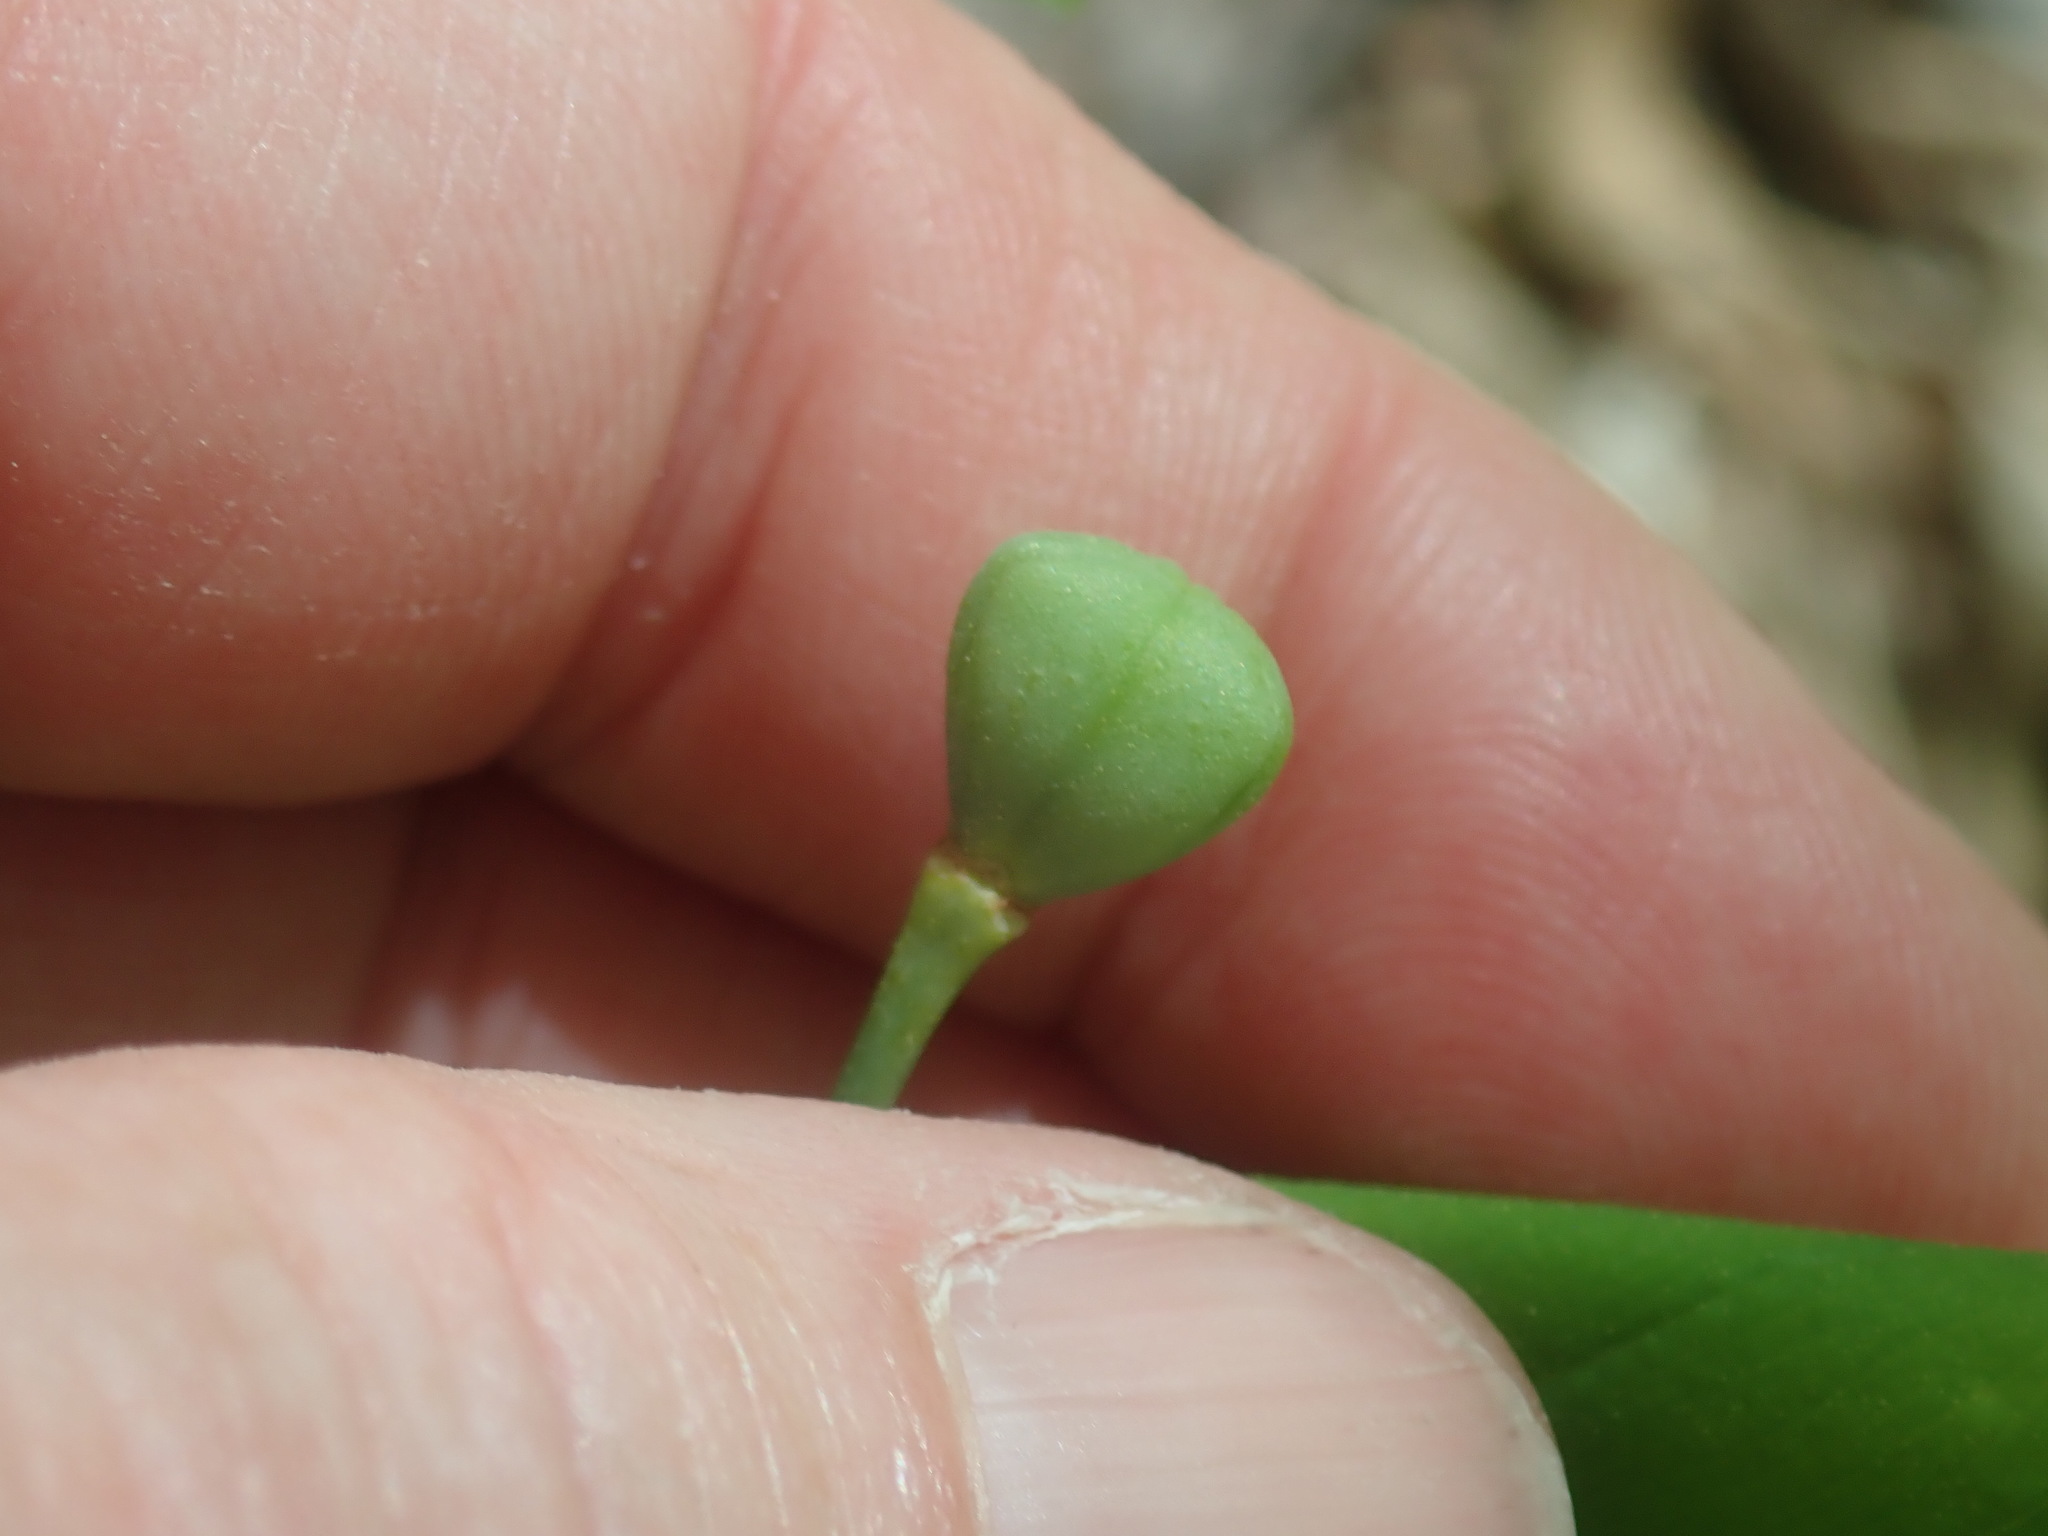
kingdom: Plantae
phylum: Tracheophyta
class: Liliopsida
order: Liliales
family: Colchicaceae
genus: Uvularia
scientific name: Uvularia grandiflora
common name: Bellwort
